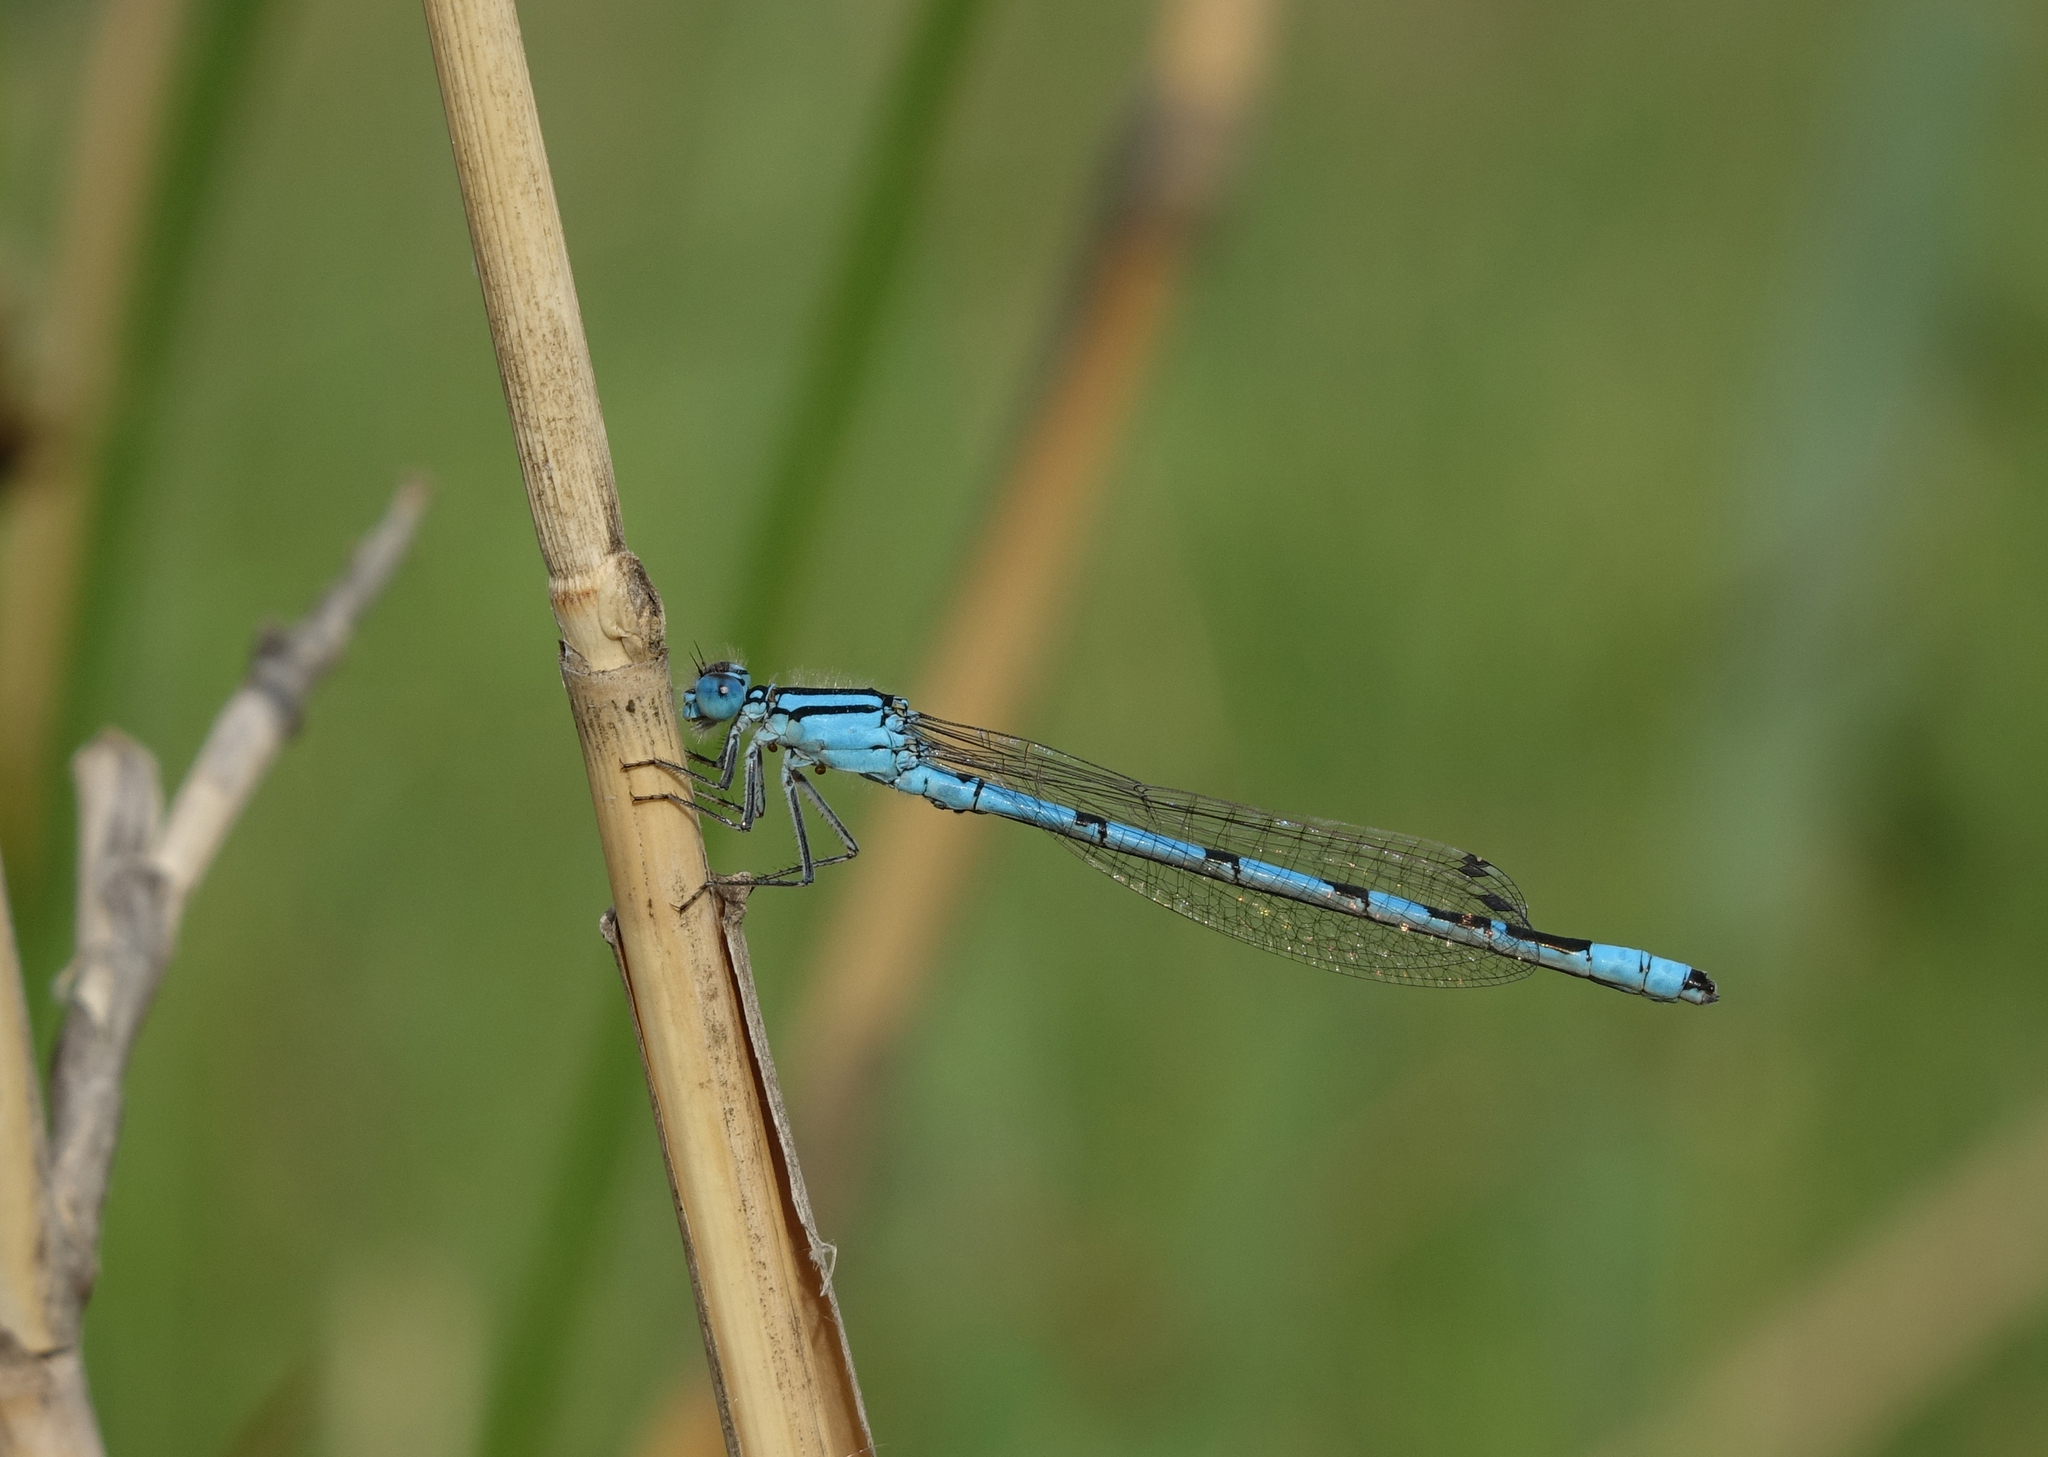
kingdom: Animalia
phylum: Arthropoda
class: Insecta
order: Odonata
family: Coenagrionidae
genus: Enallagma
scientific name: Enallagma cyathigerum
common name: Common blue damselfly
